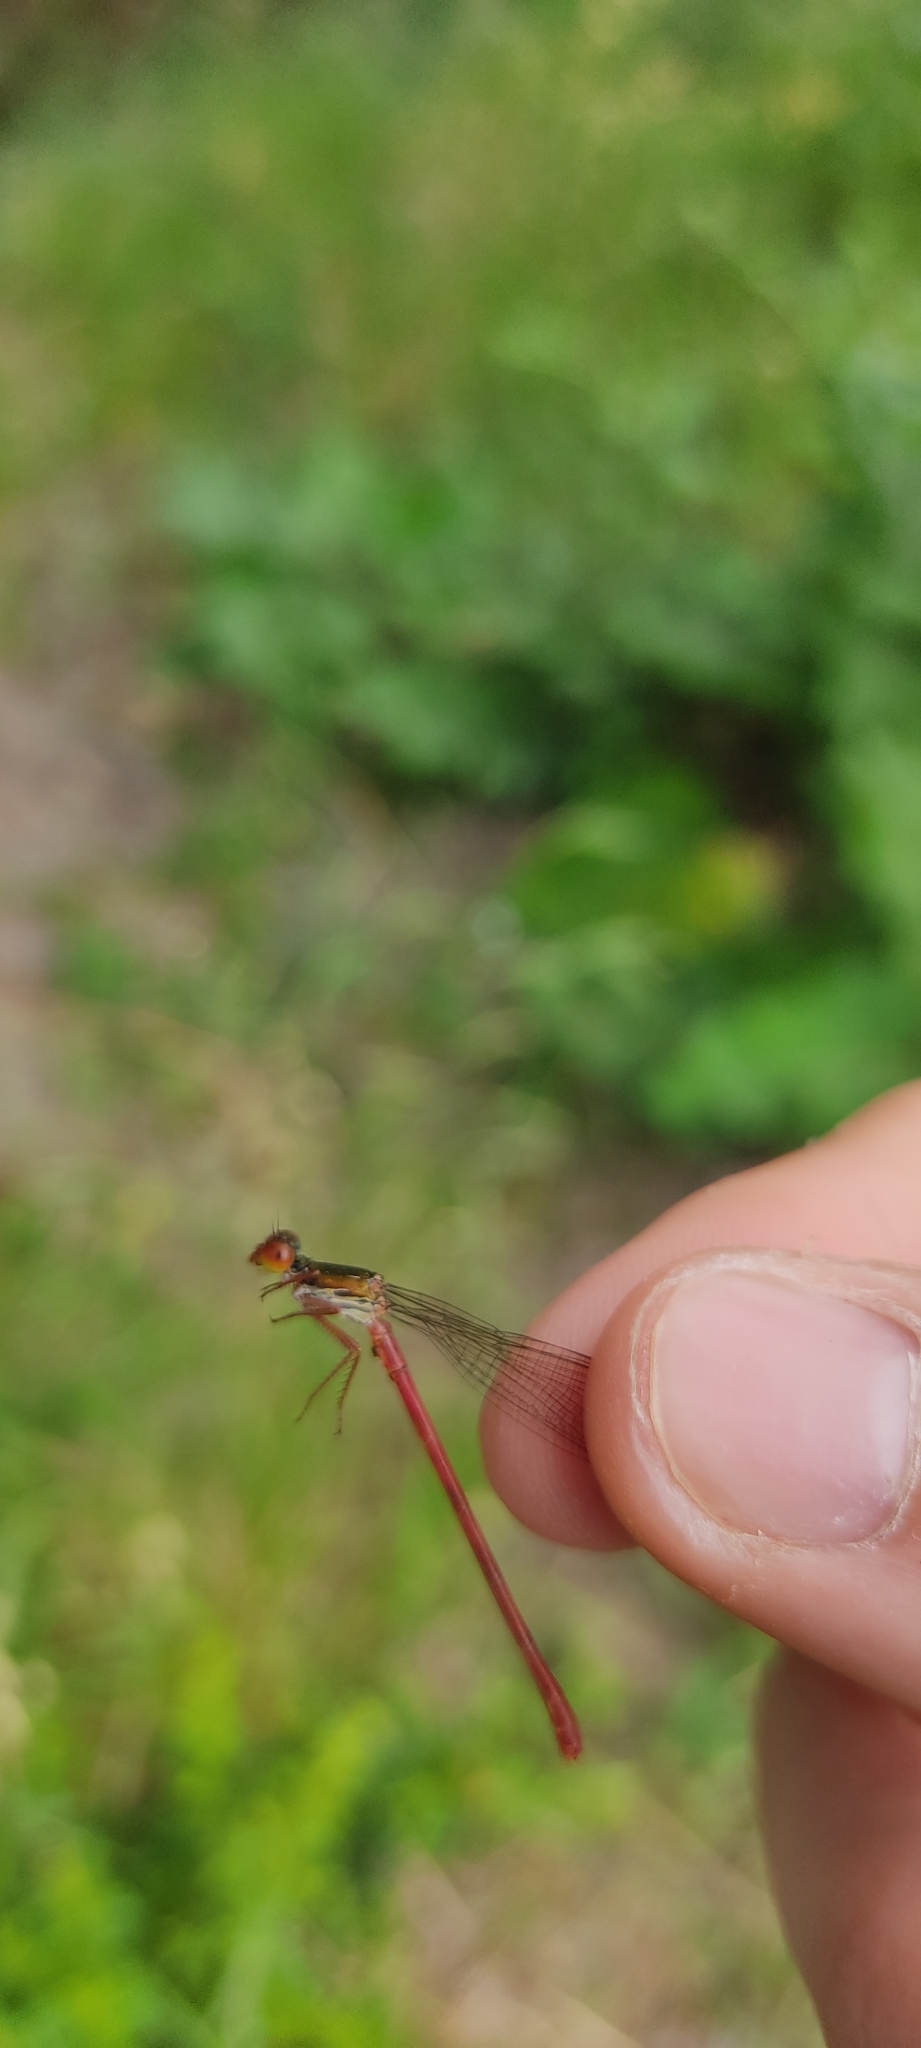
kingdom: Animalia
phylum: Arthropoda
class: Insecta
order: Odonata
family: Coenagrionidae
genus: Ceriagrion
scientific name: Ceriagrion tenellum
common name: Small red damselfly
